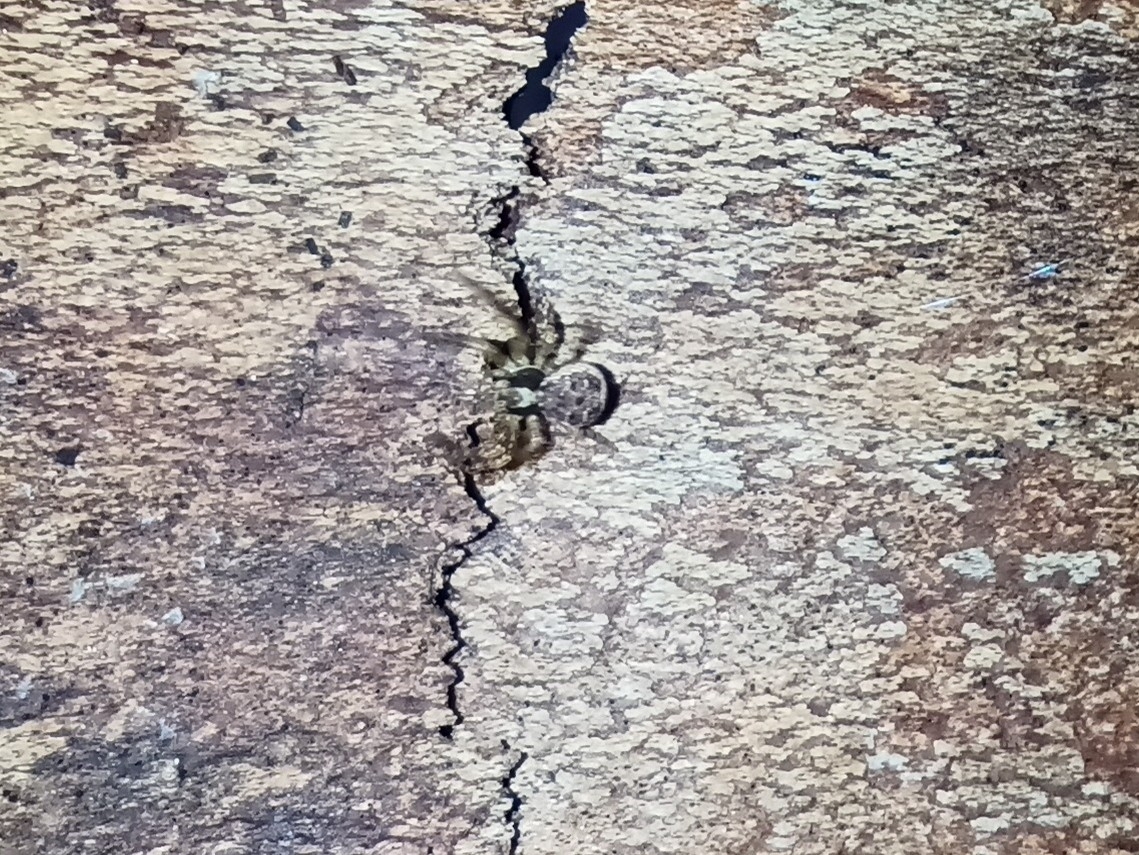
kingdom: Animalia
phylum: Arthropoda
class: Arachnida
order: Araneae
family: Thomisidae
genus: Xysticus
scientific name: Xysticus
